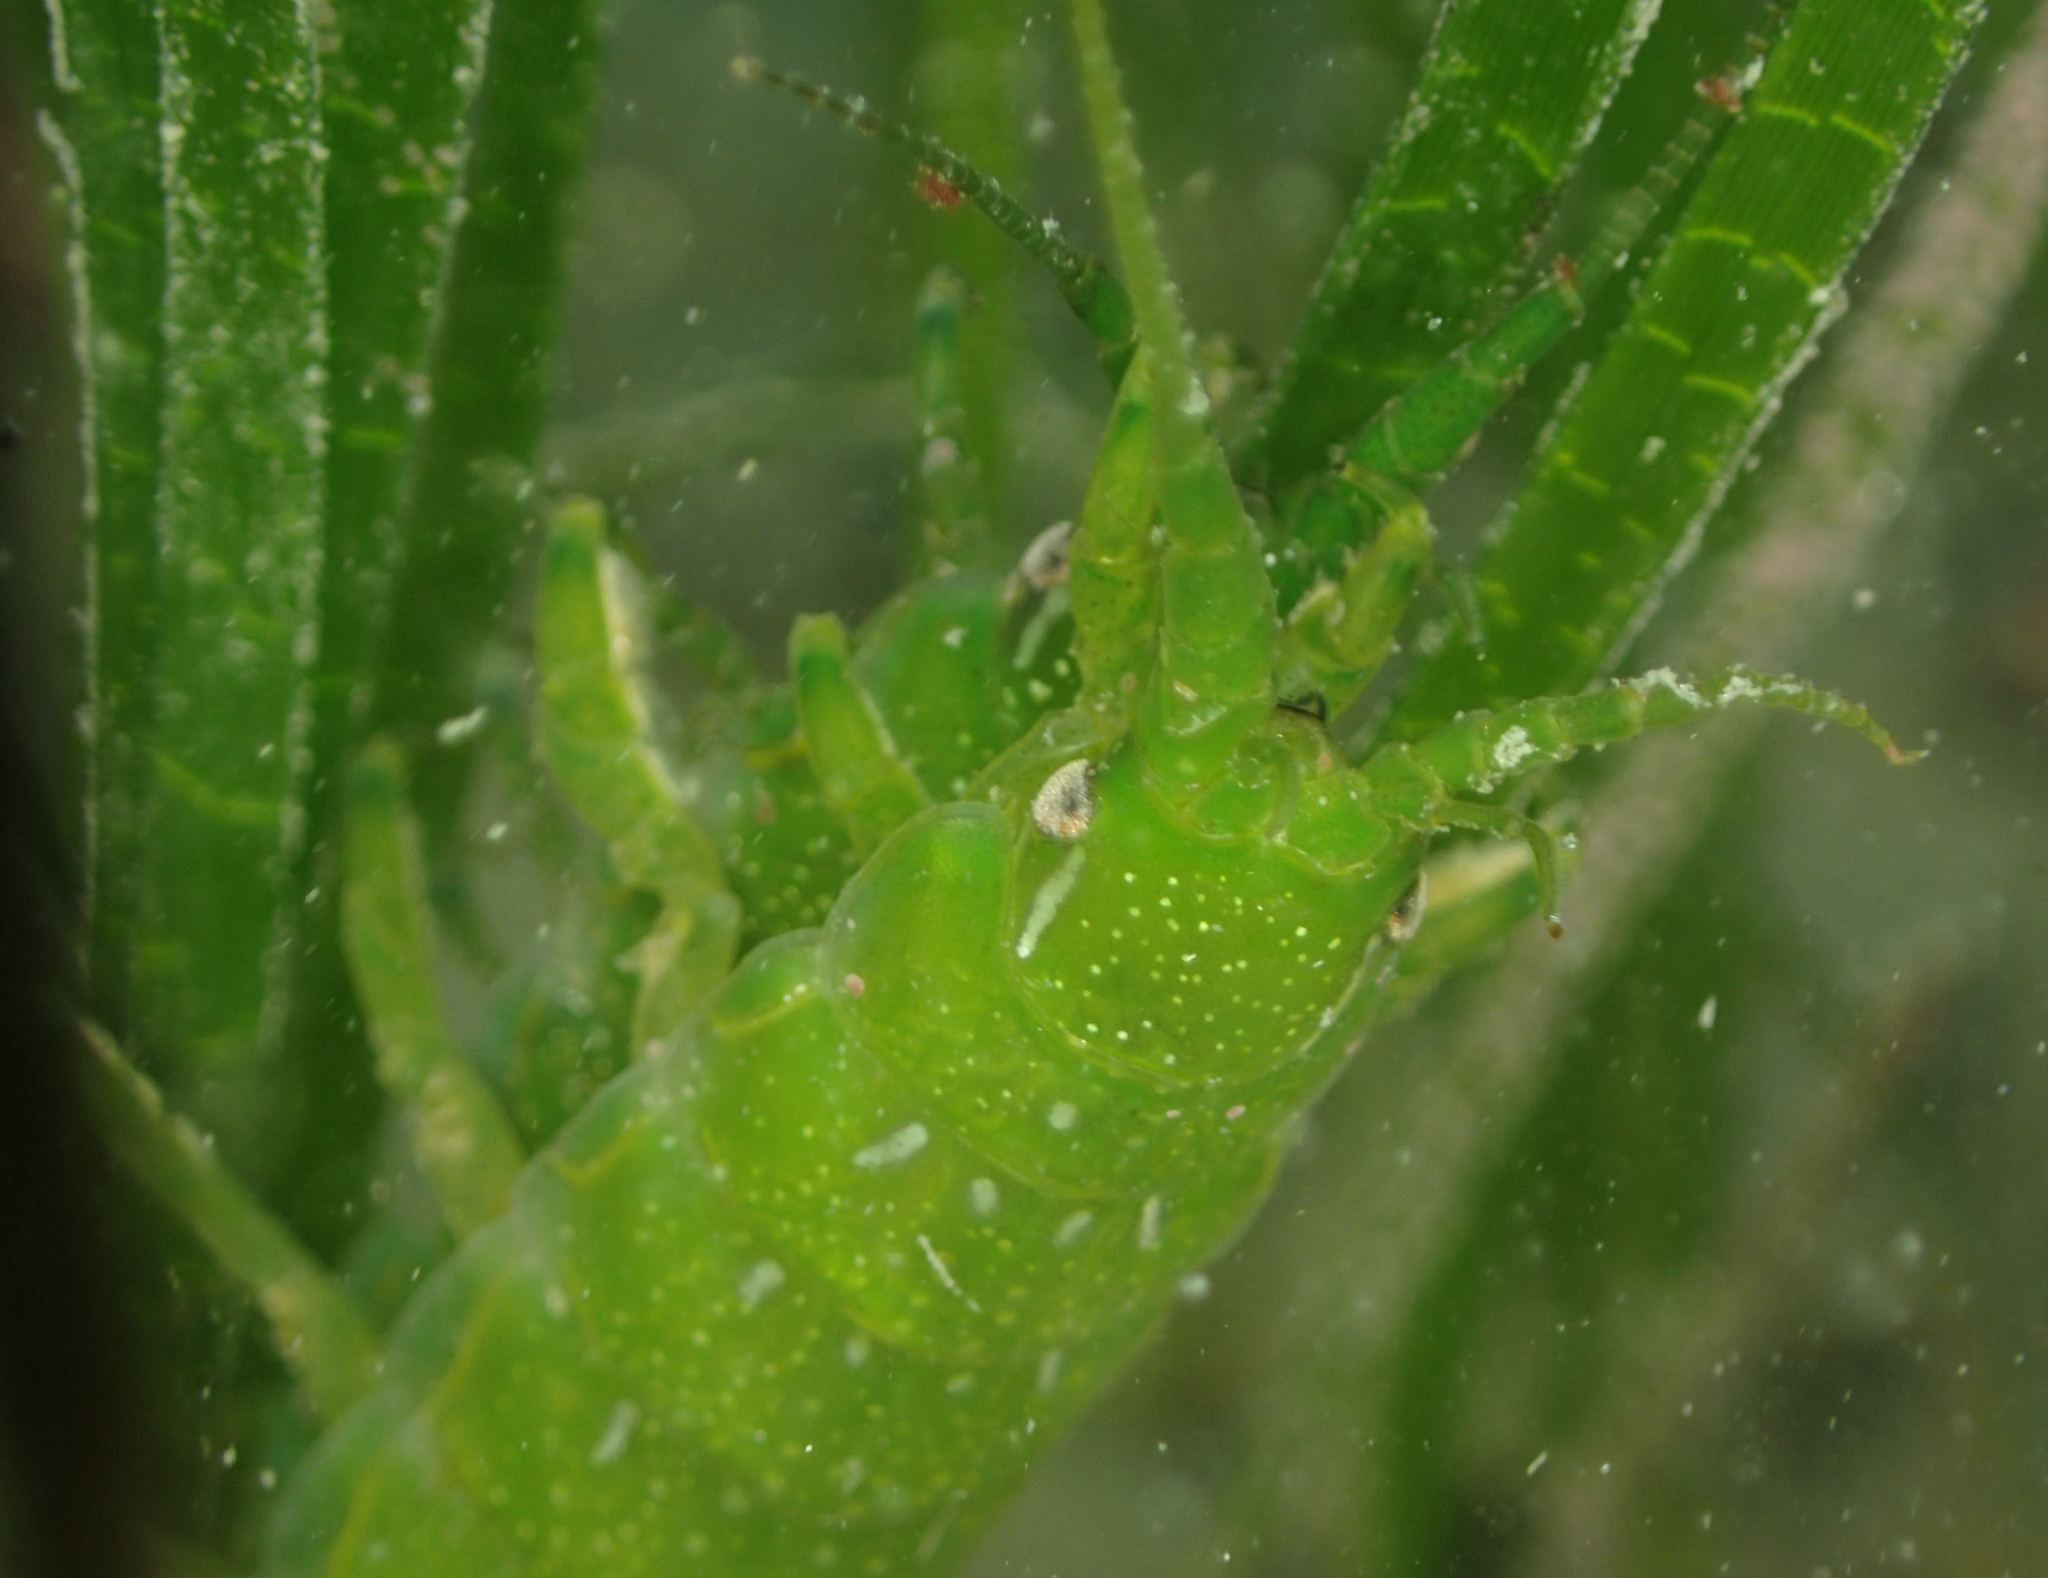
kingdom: Animalia
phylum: Arthropoda
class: Malacostraca
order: Isopoda
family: Idoteidae
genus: Paridotea
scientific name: Paridotea ungulata
